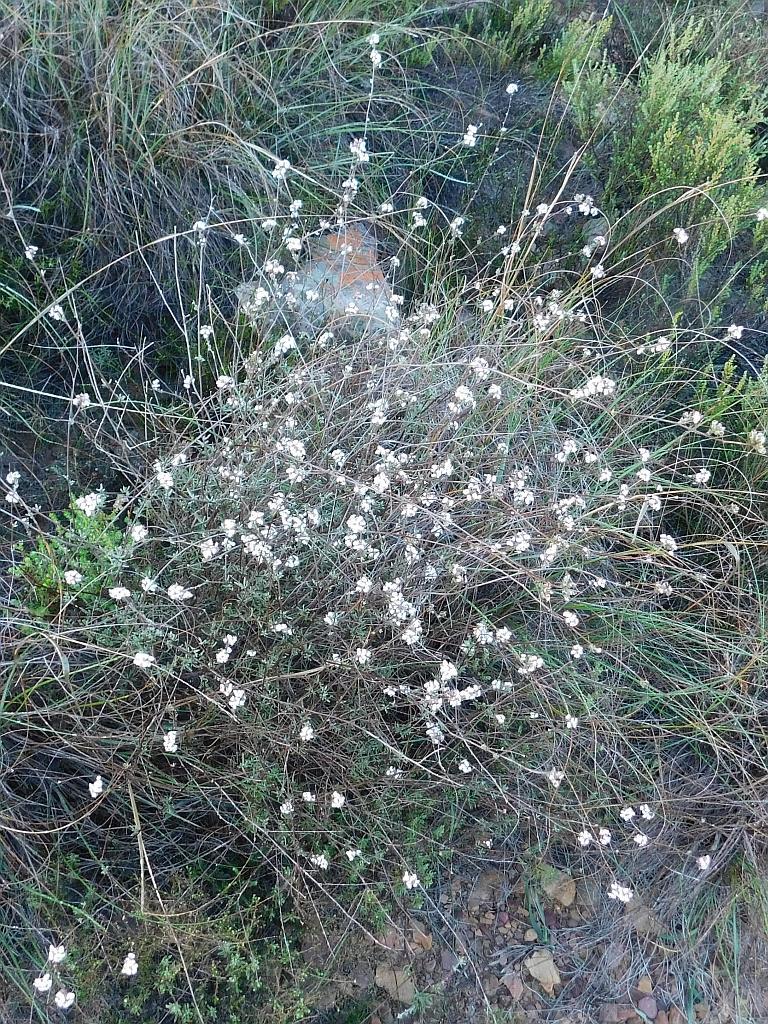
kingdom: Plantae
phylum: Tracheophyta
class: Magnoliopsida
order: Asterales
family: Asteraceae
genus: Eriocephalus
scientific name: Eriocephalus africanus
